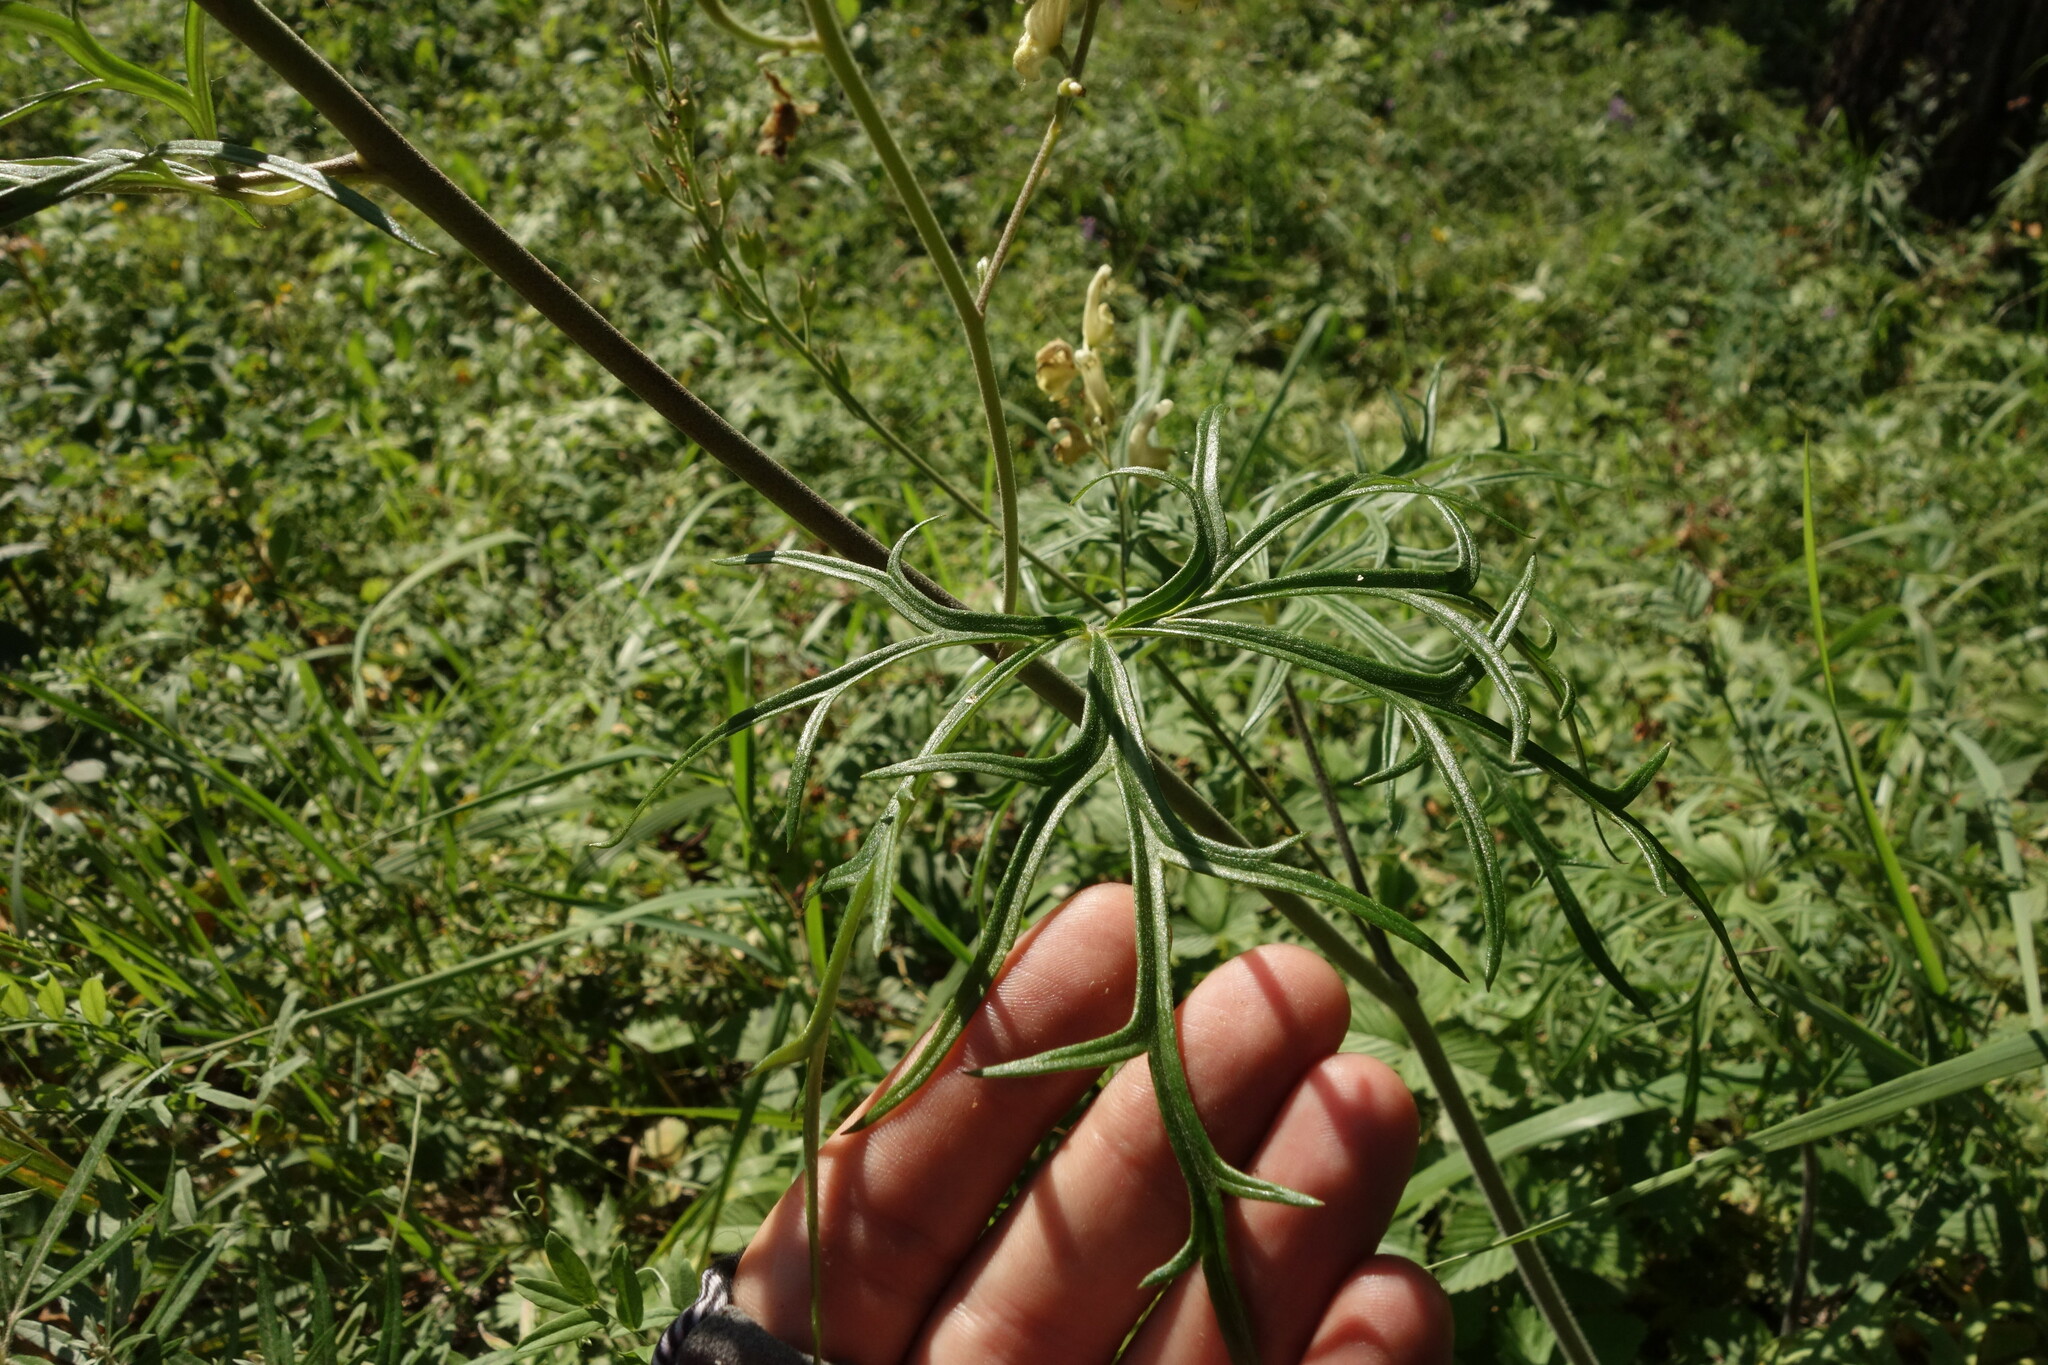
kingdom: Plantae
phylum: Tracheophyta
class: Magnoliopsida
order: Ranunculales
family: Ranunculaceae
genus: Aconitum
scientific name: Aconitum barbatum
